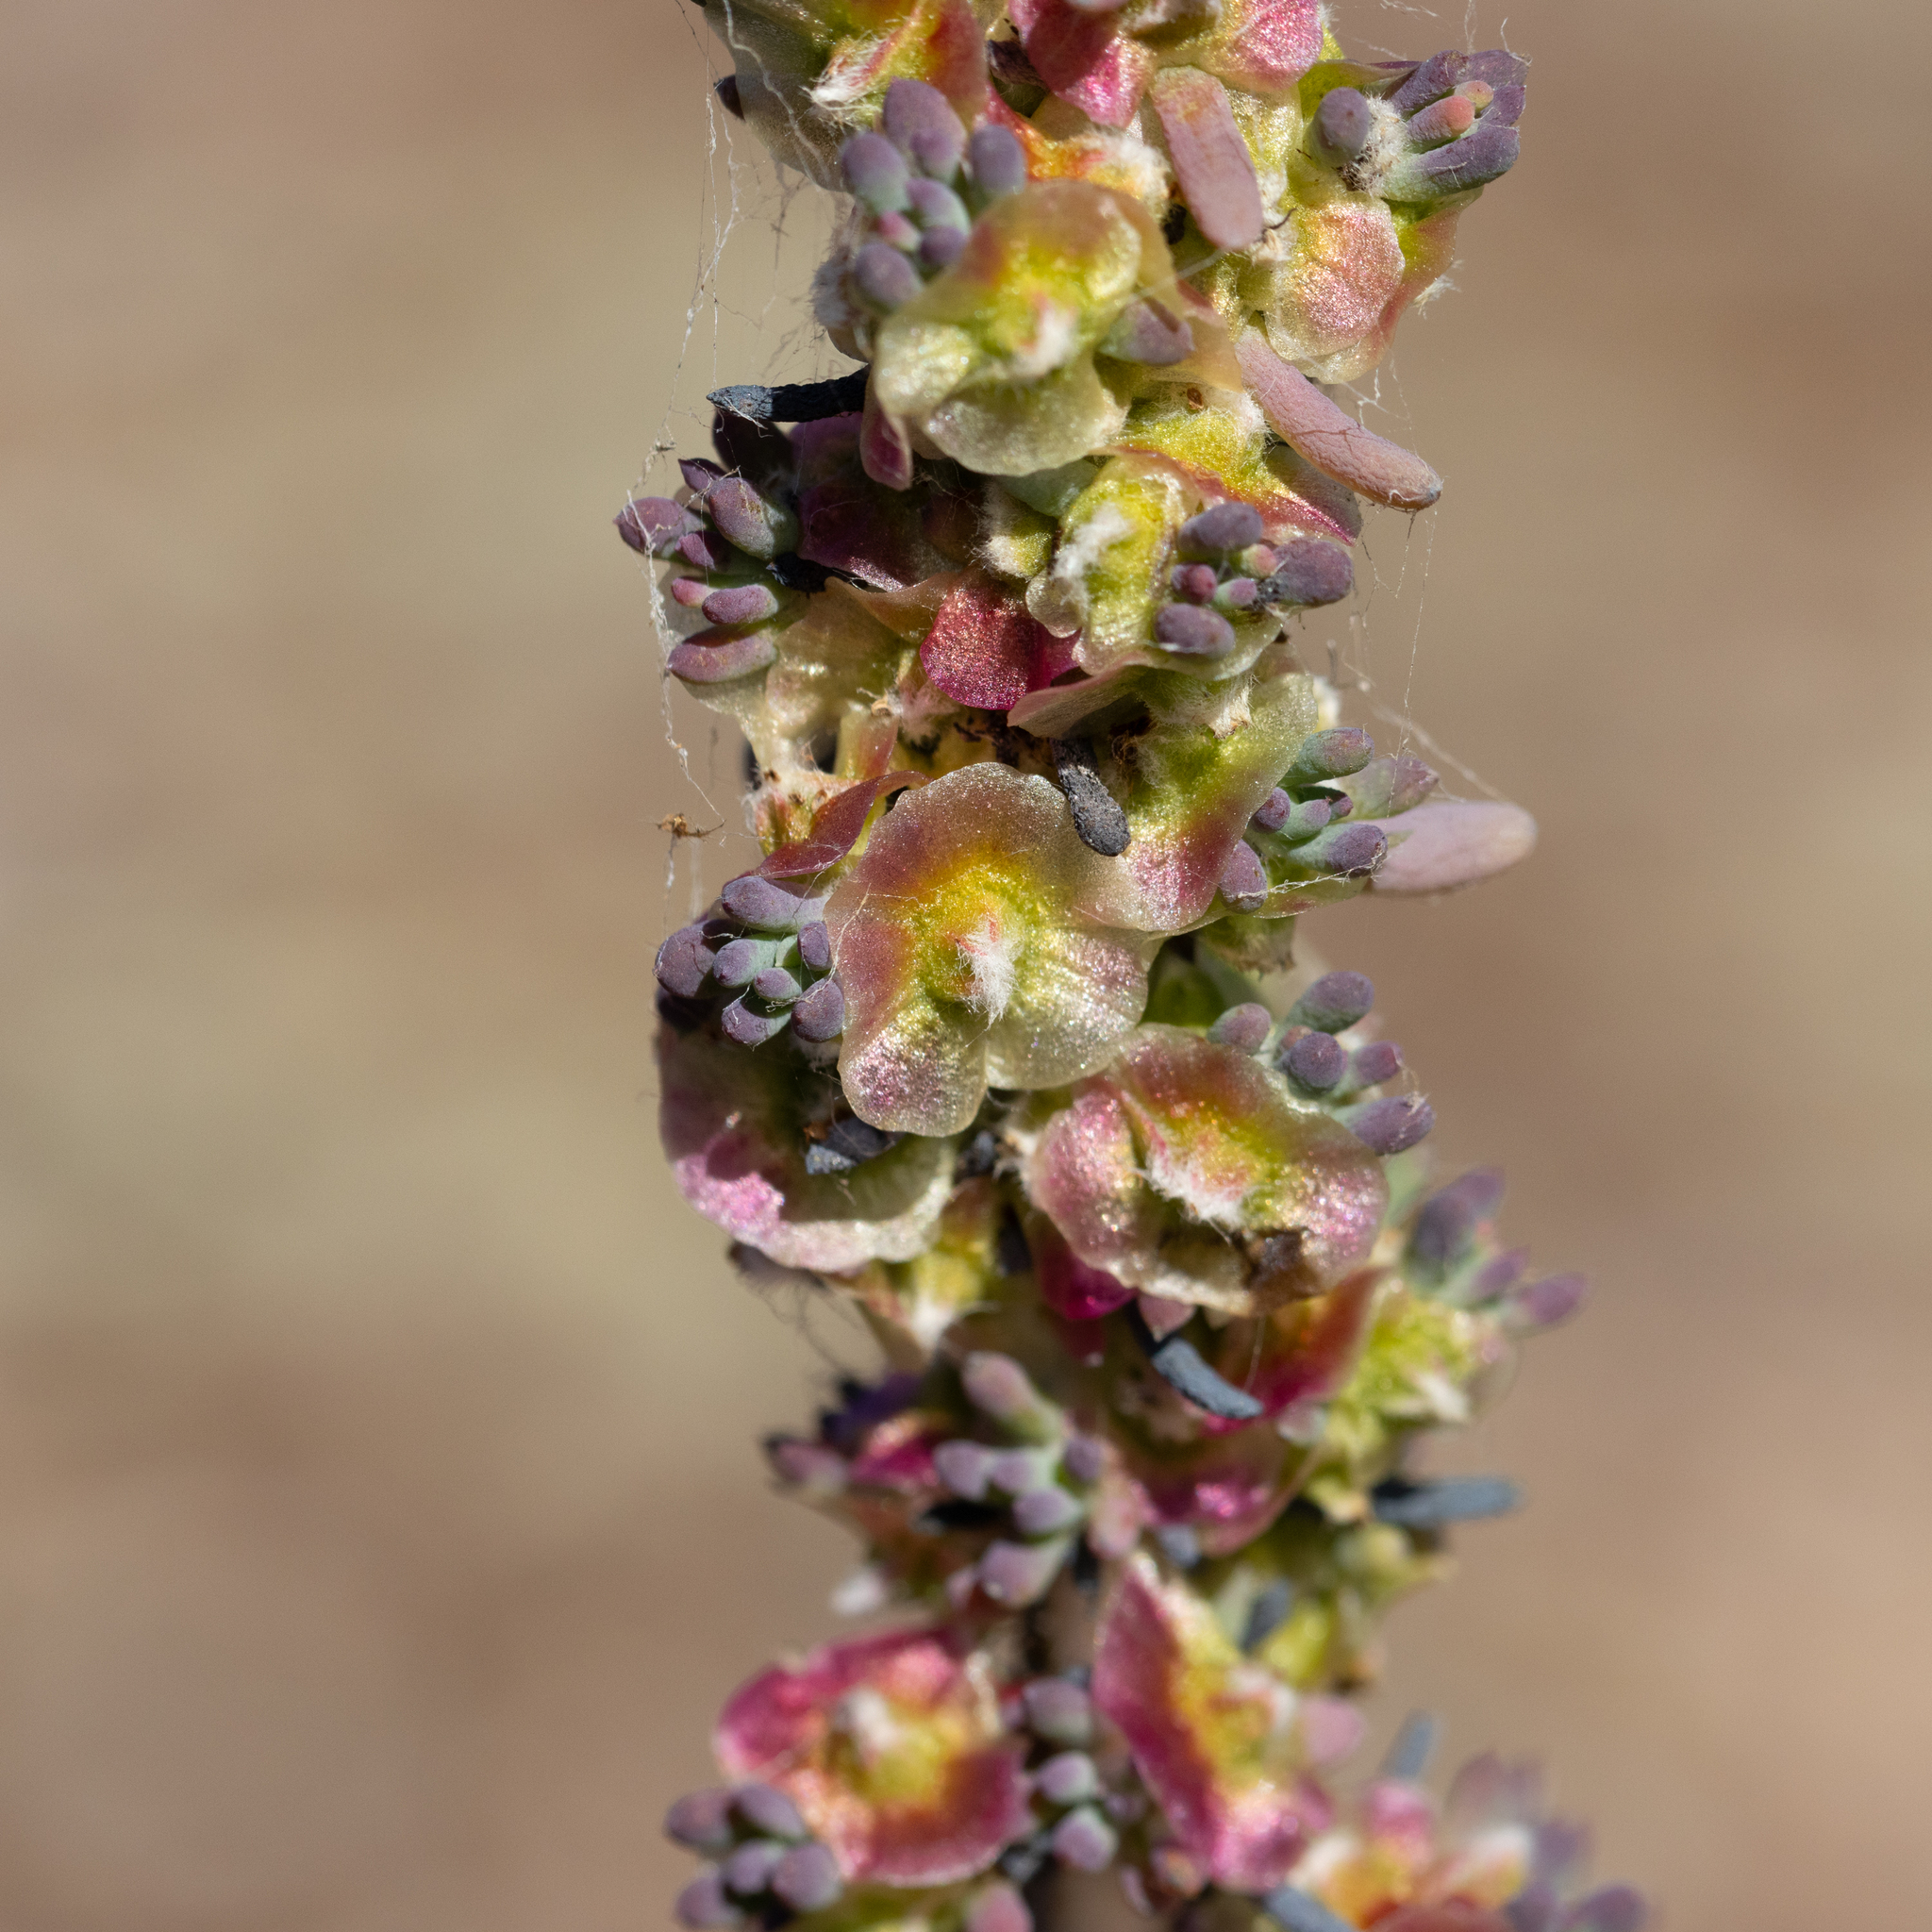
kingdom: Plantae
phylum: Tracheophyta
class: Magnoliopsida
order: Caryophyllales
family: Amaranthaceae
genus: Maireana
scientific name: Maireana pentatropis
